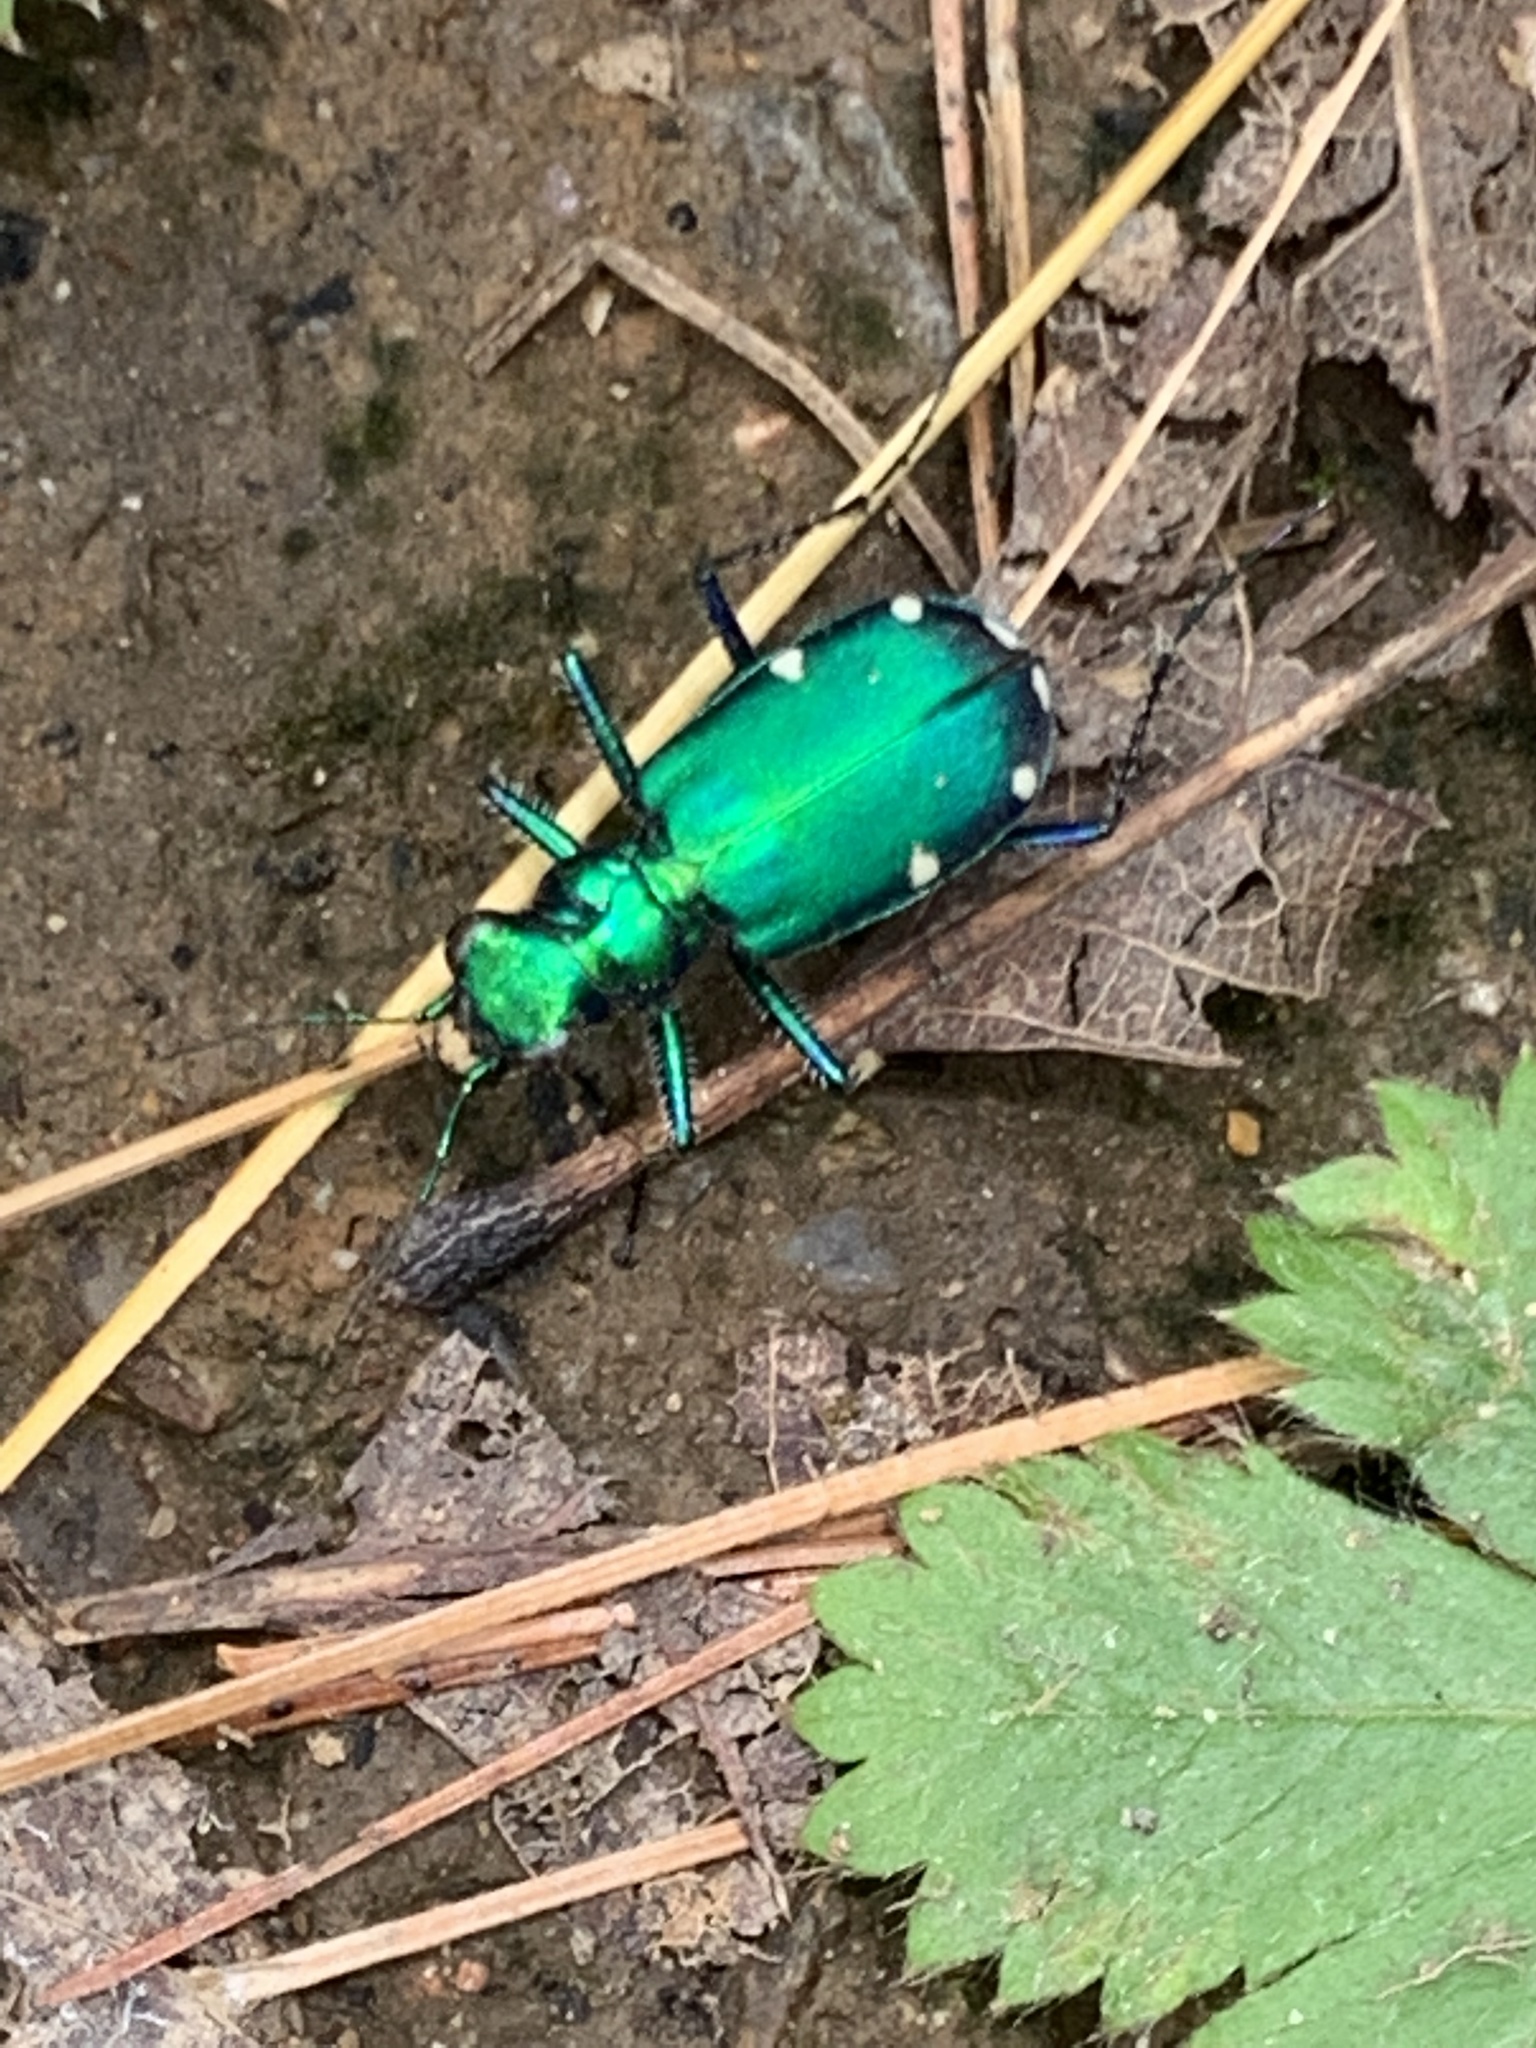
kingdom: Animalia
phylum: Arthropoda
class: Insecta
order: Coleoptera
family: Carabidae
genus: Cicindela
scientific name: Cicindela sexguttata
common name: Six-spotted tiger beetle
